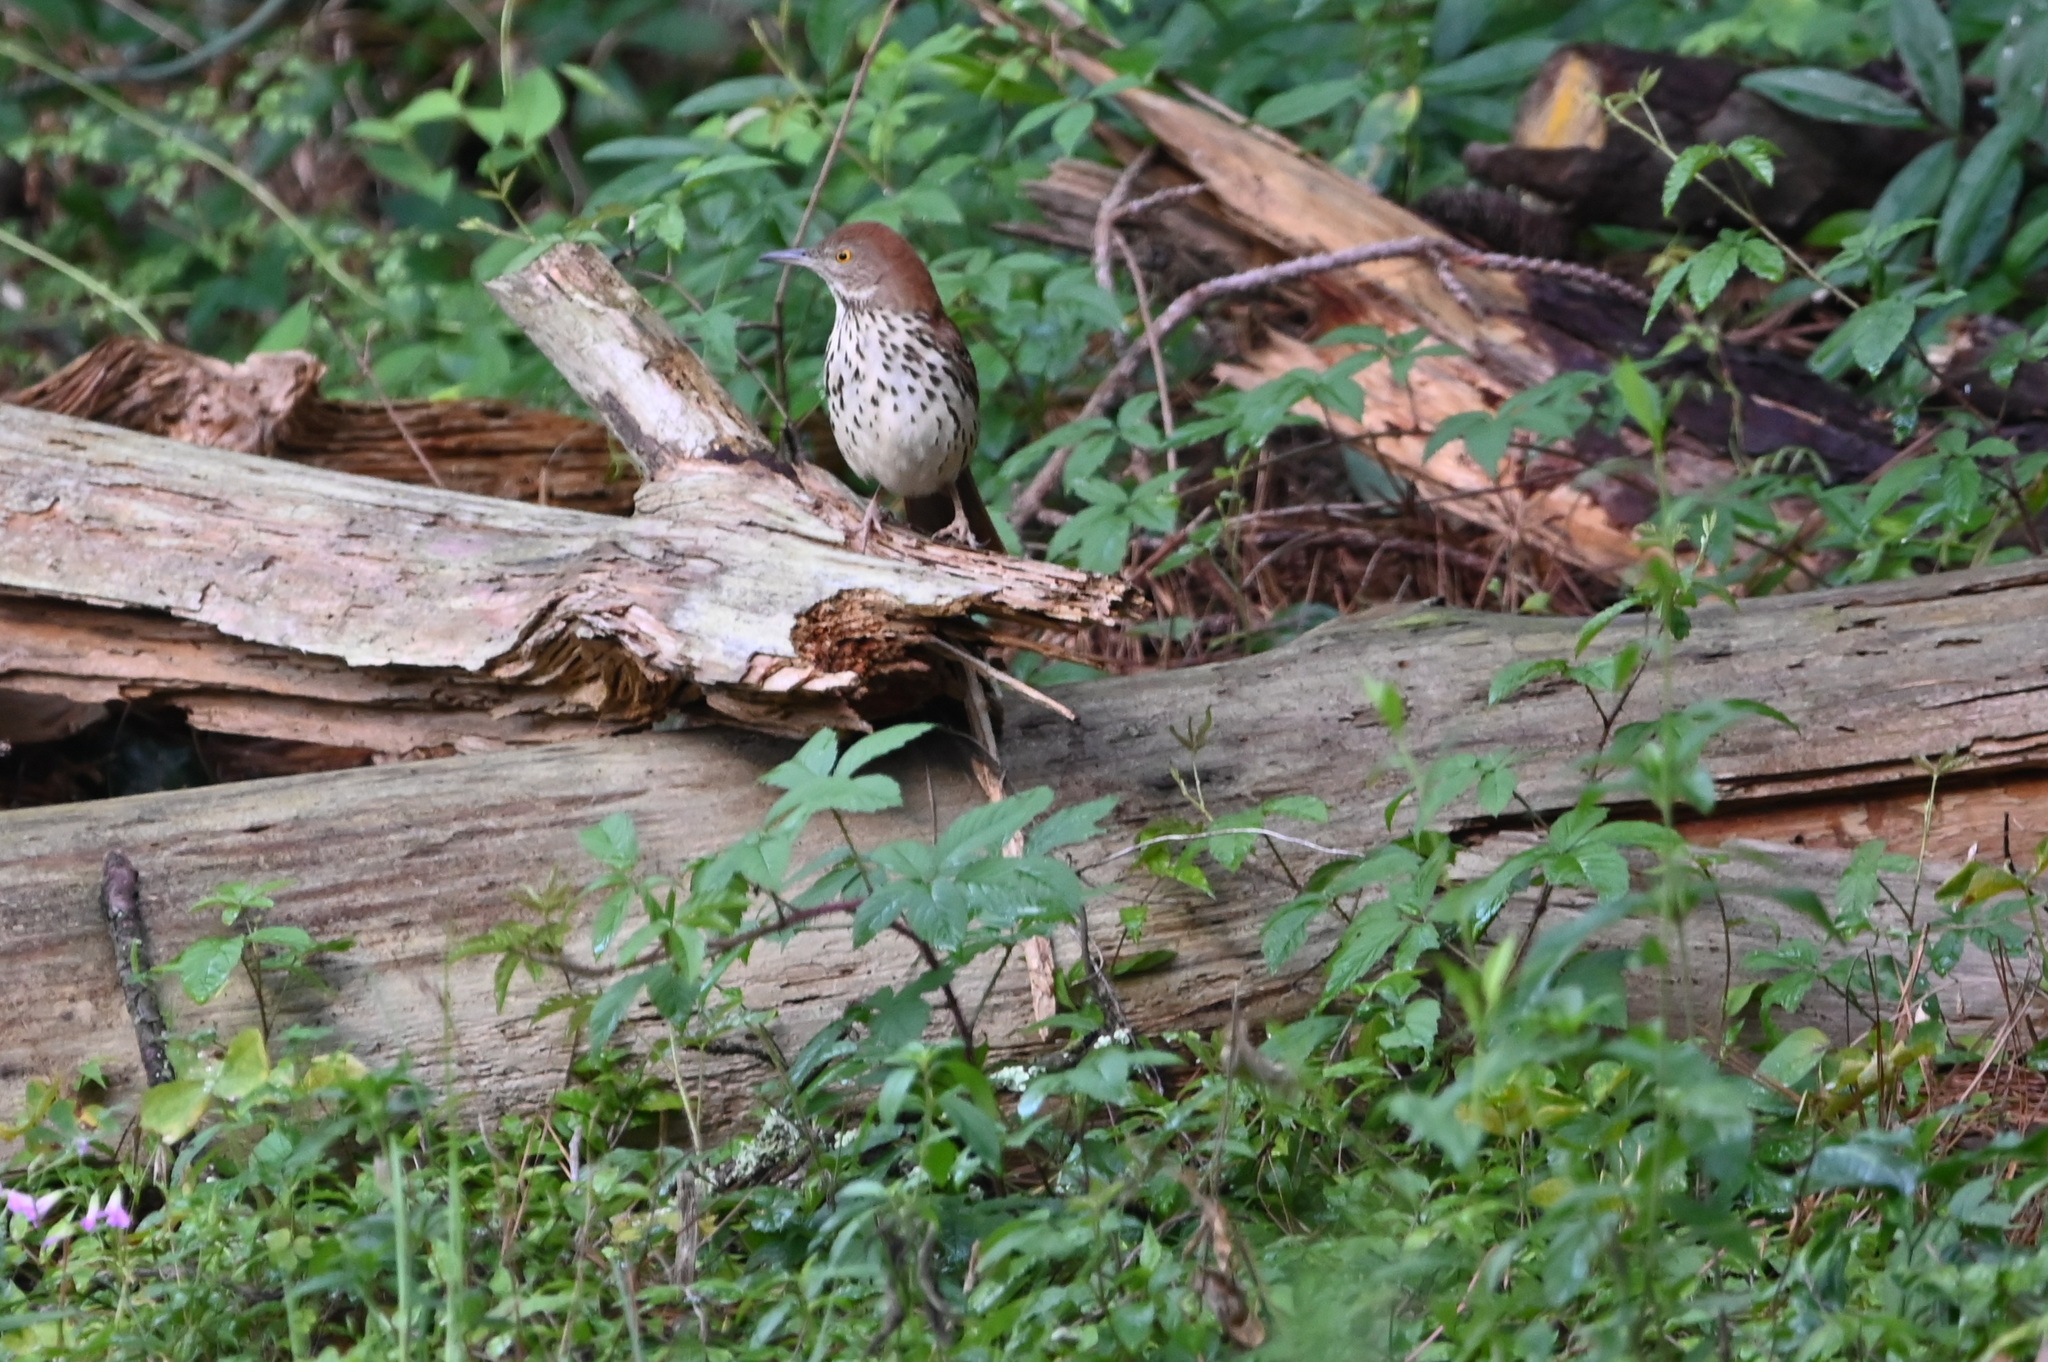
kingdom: Animalia
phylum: Chordata
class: Aves
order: Passeriformes
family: Mimidae
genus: Toxostoma
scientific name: Toxostoma rufum
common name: Brown thrasher
